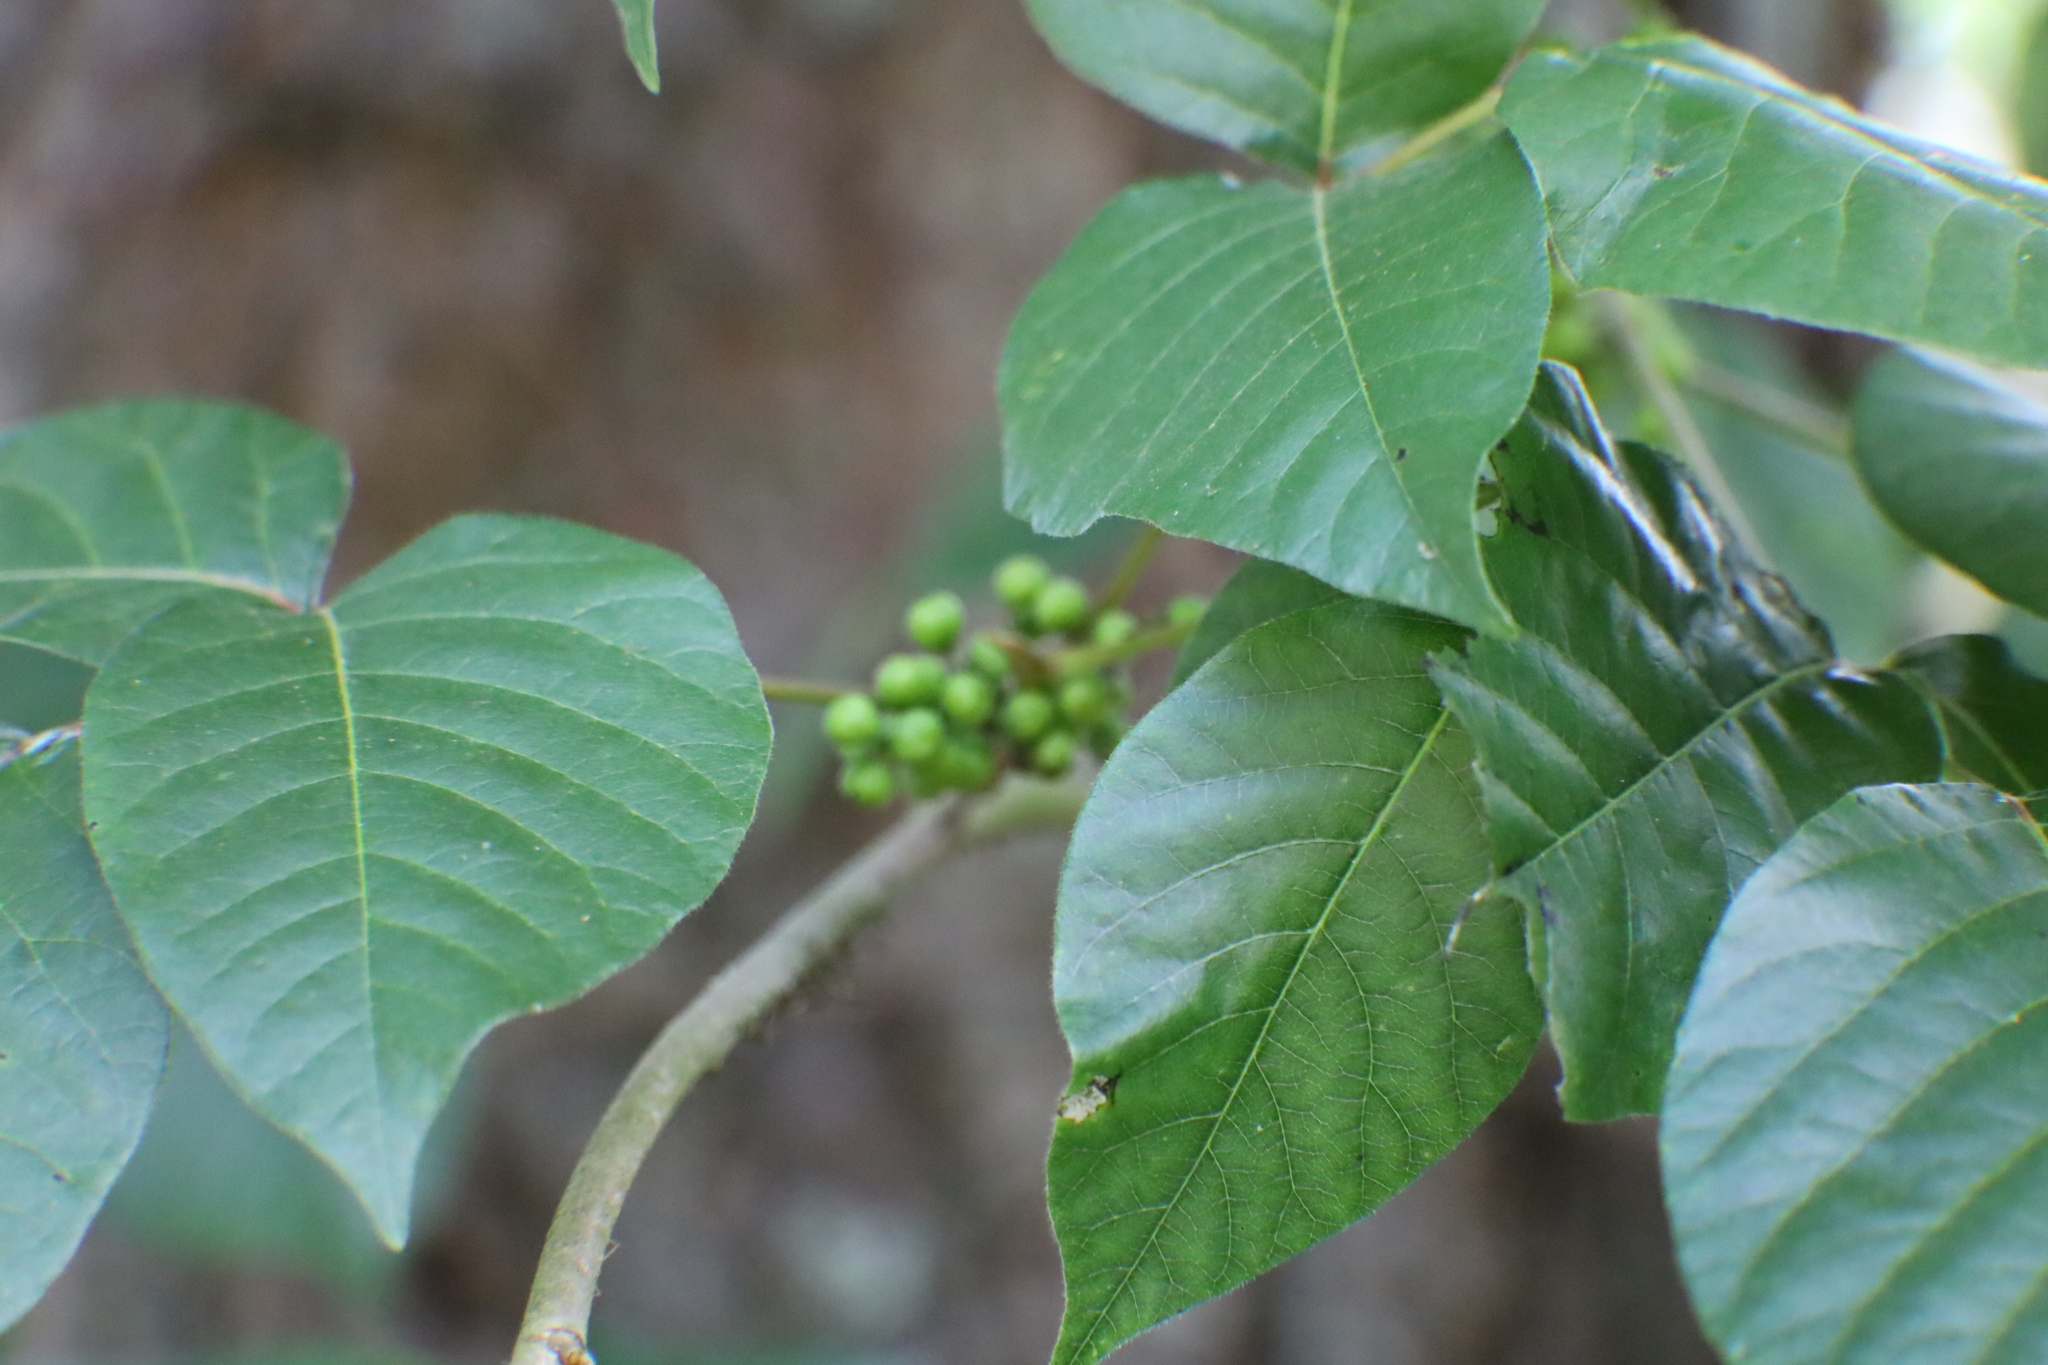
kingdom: Plantae
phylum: Tracheophyta
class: Magnoliopsida
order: Sapindales
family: Anacardiaceae
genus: Toxicodendron
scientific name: Toxicodendron radicans
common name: Poison ivy
